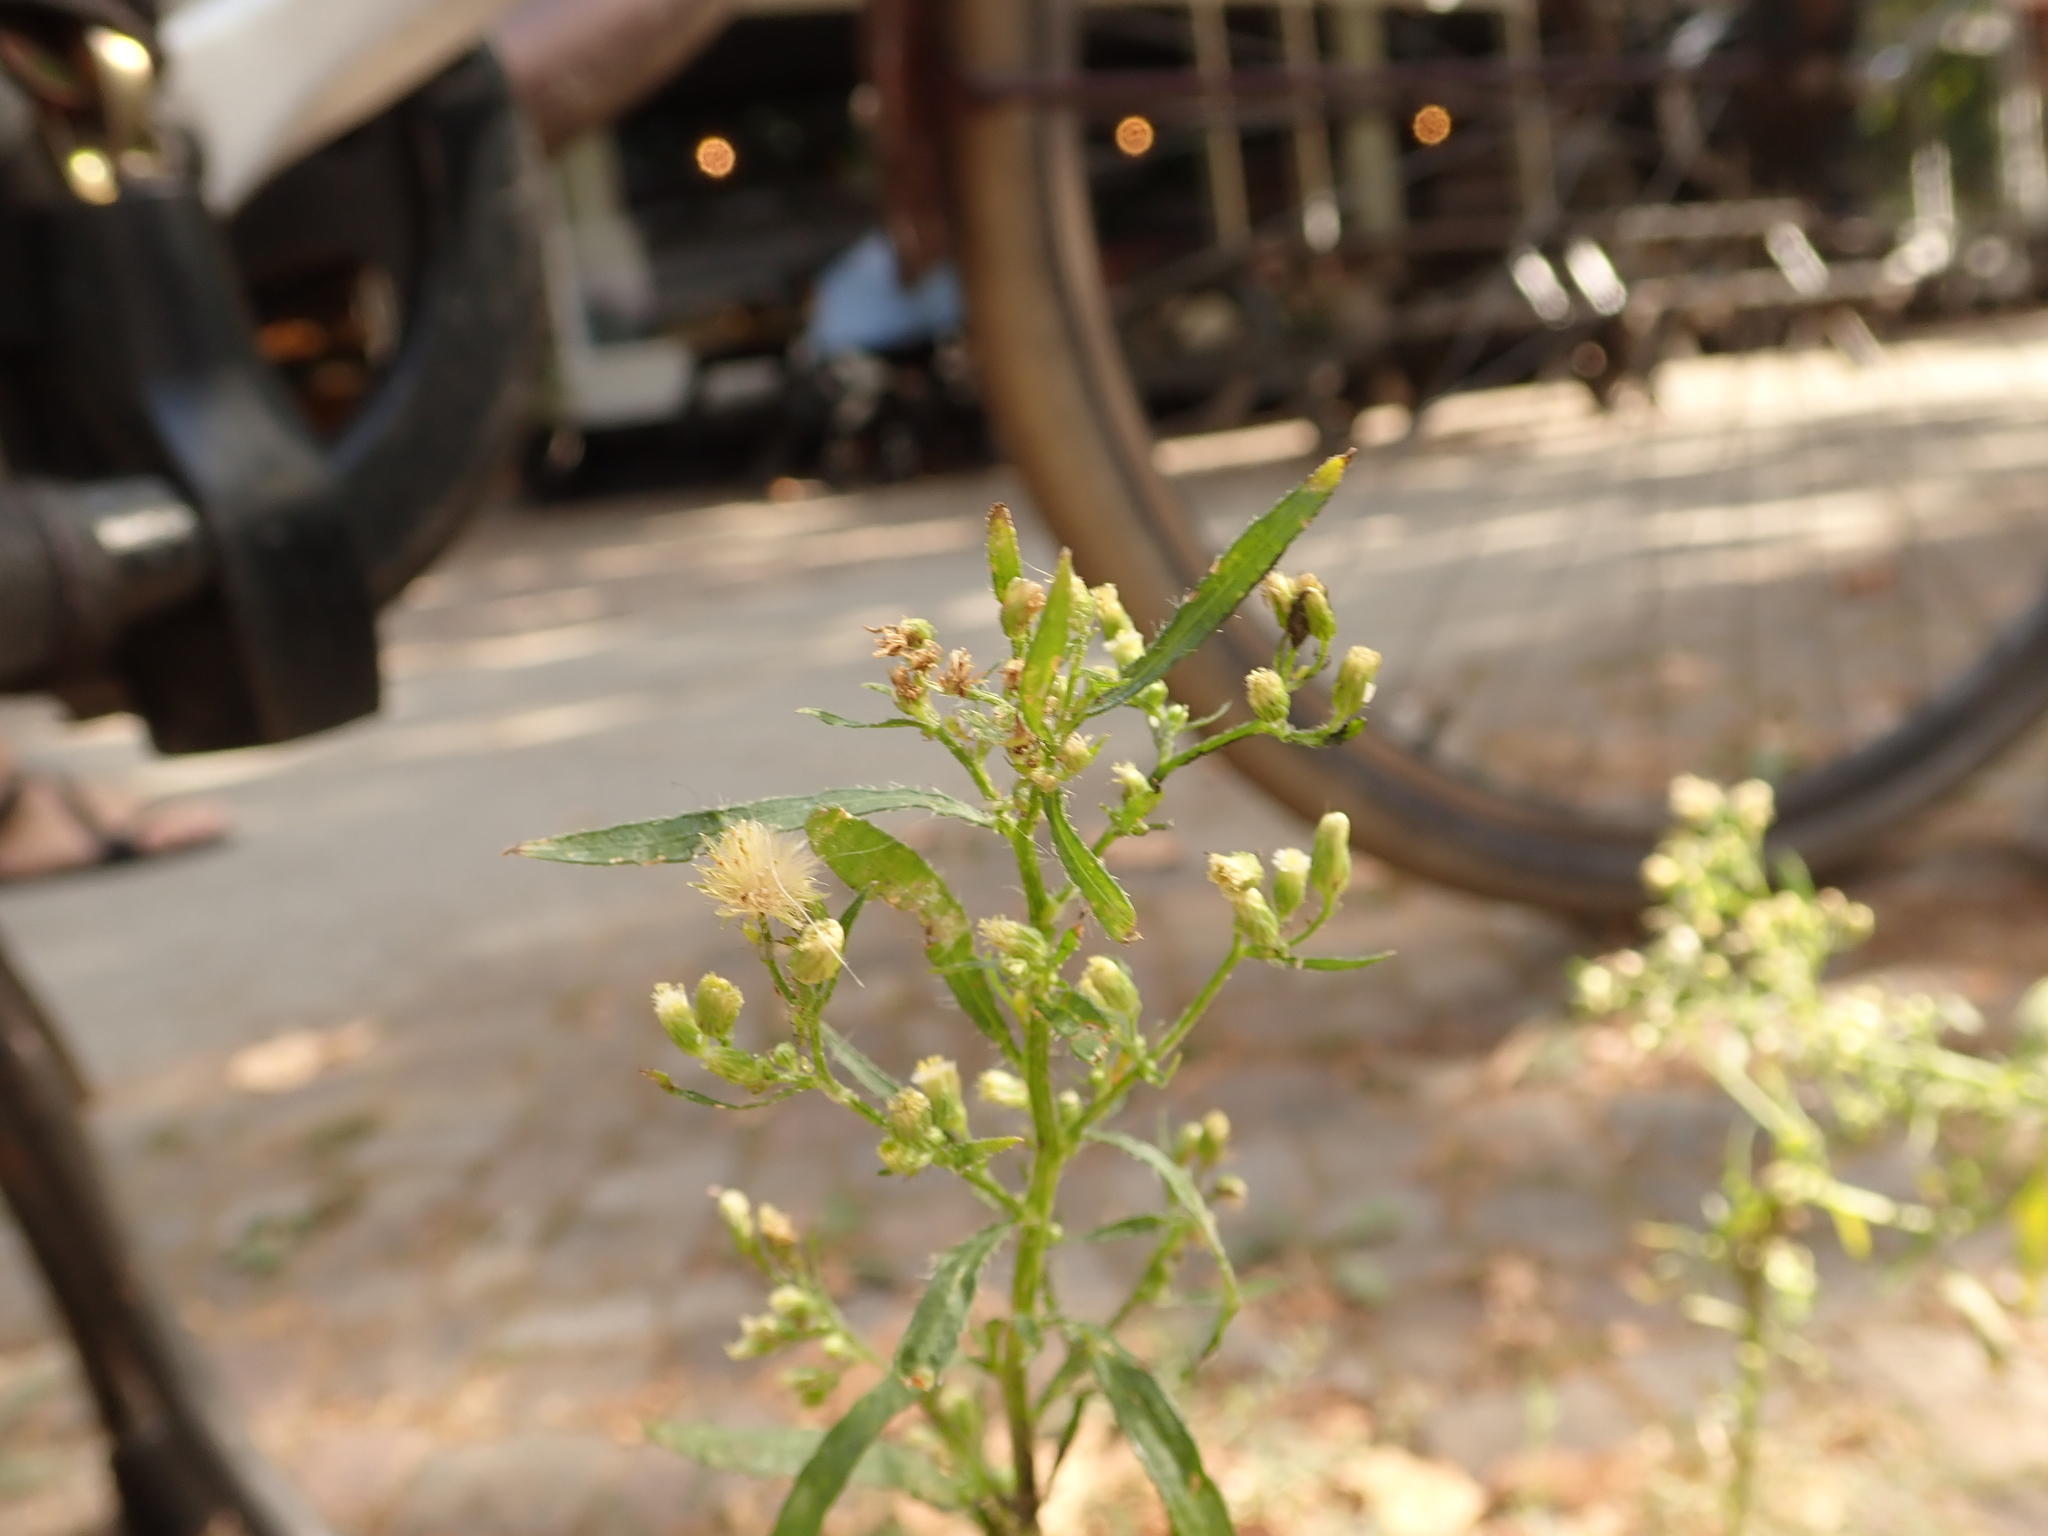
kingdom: Plantae
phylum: Tracheophyta
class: Magnoliopsida
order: Asterales
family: Asteraceae
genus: Erigeron
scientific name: Erigeron canadensis
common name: Canadian fleabane
